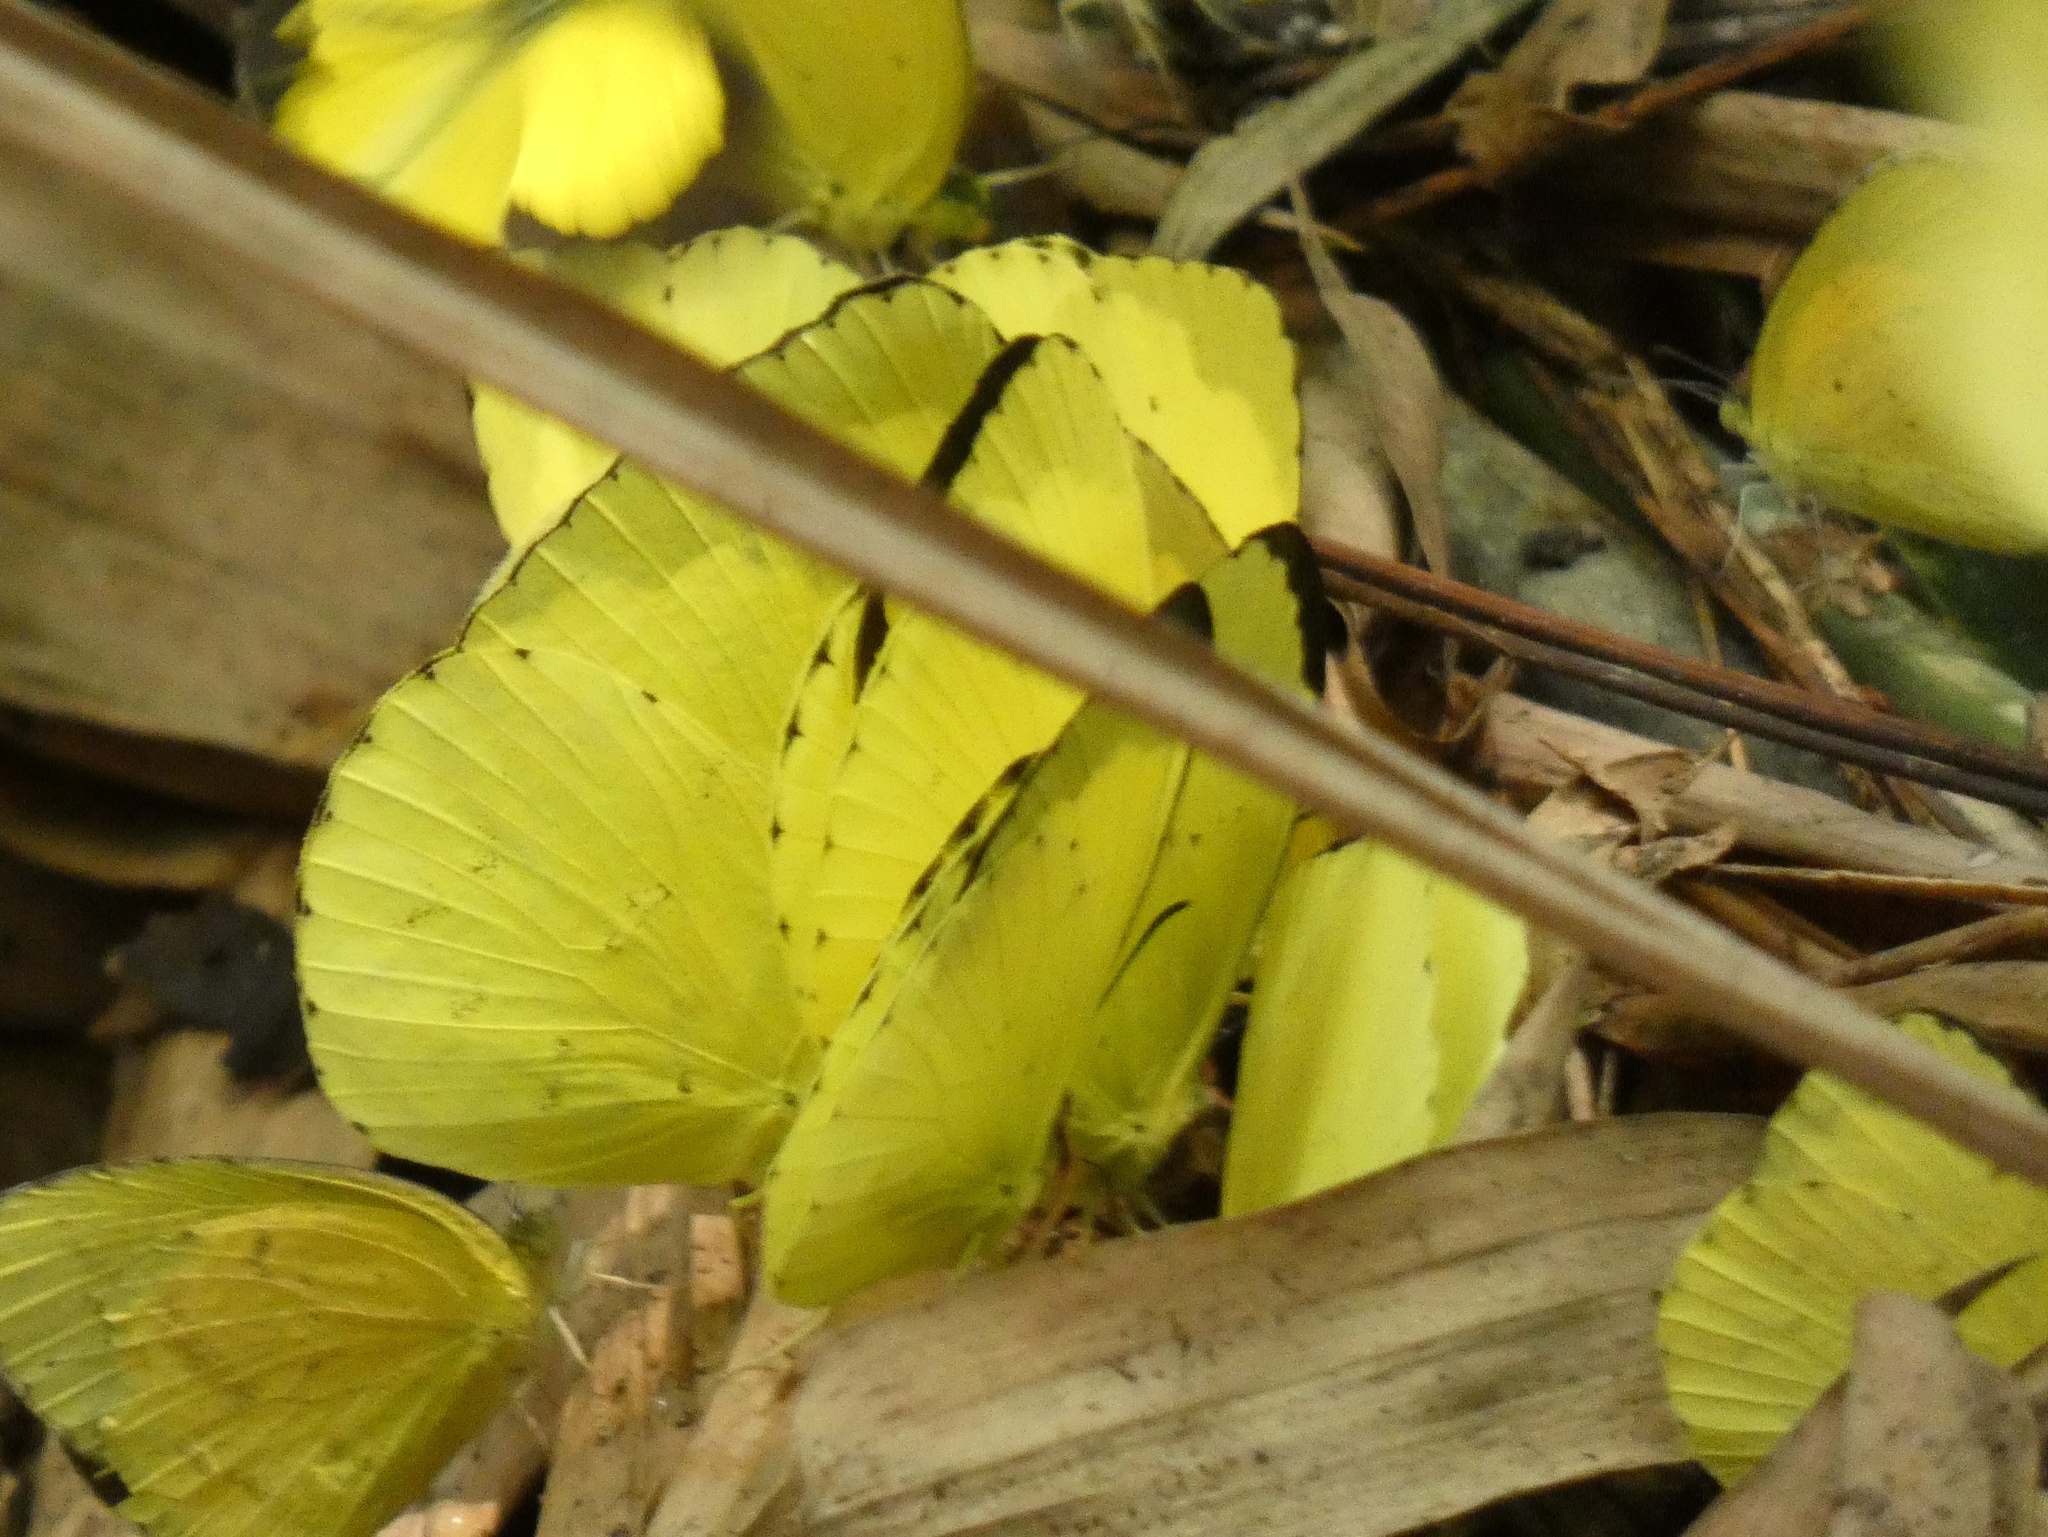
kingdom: Animalia
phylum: Arthropoda
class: Insecta
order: Lepidoptera
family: Pieridae
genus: Eurema
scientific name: Eurema senegalensis
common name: Forest grass yellow
